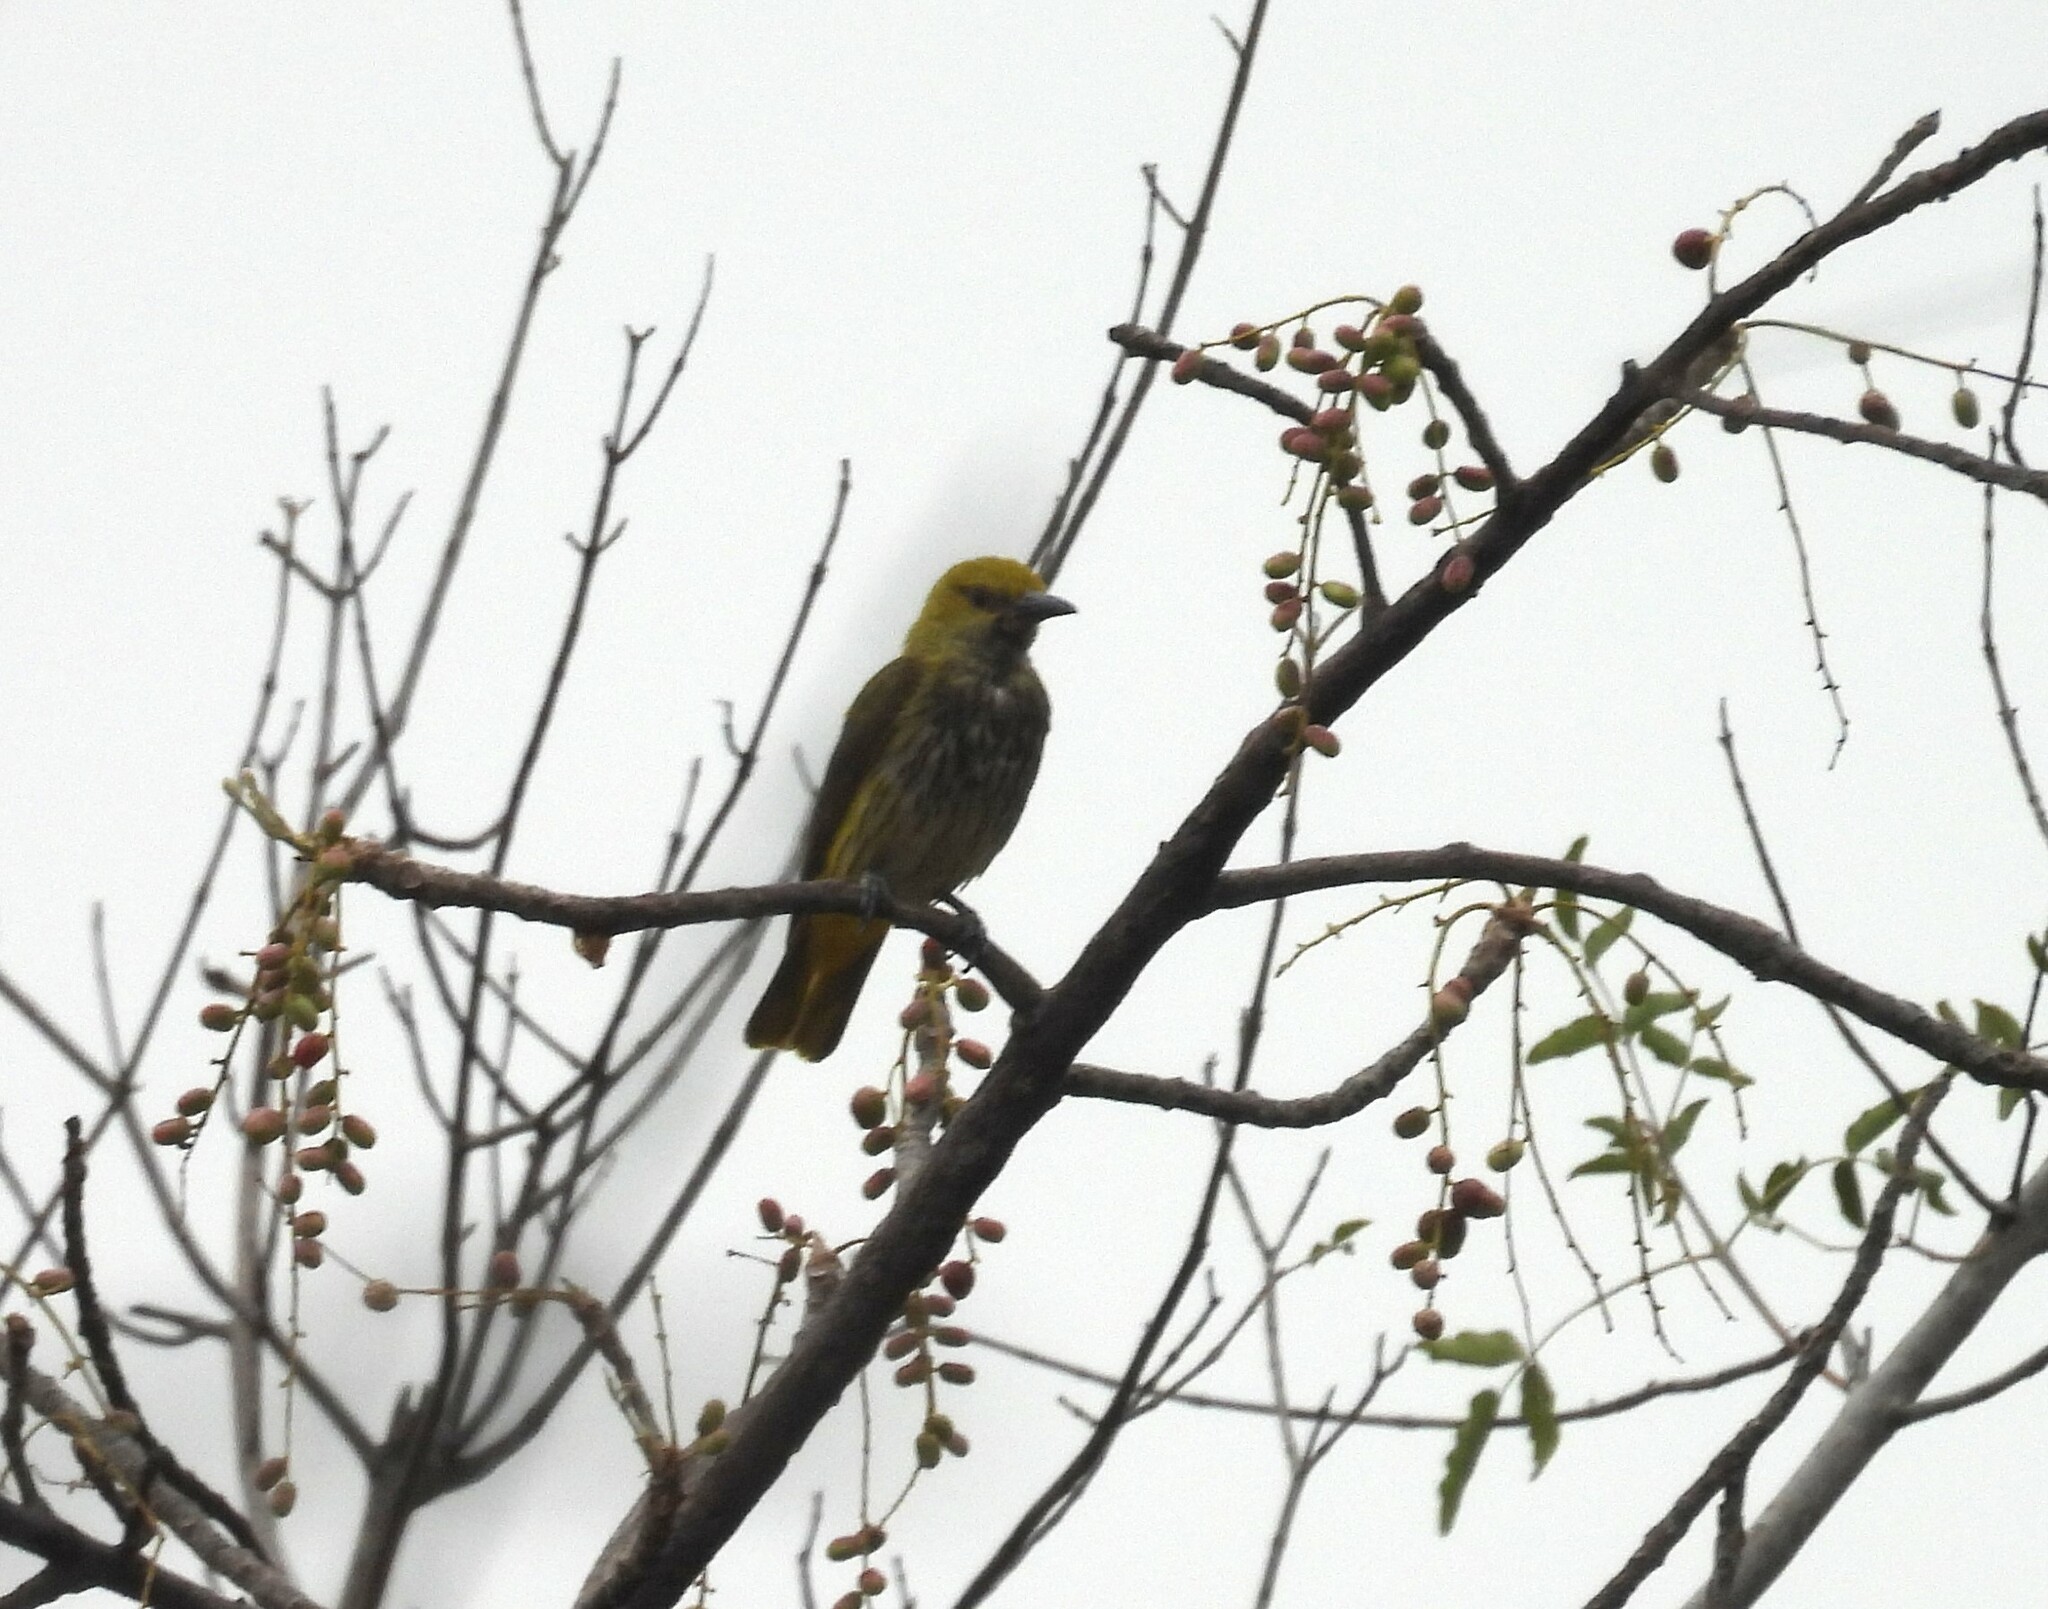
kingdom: Animalia
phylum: Chordata
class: Aves
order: Passeriformes
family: Oriolidae
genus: Oriolus
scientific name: Oriolus kundoo
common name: Indian golden oriole
